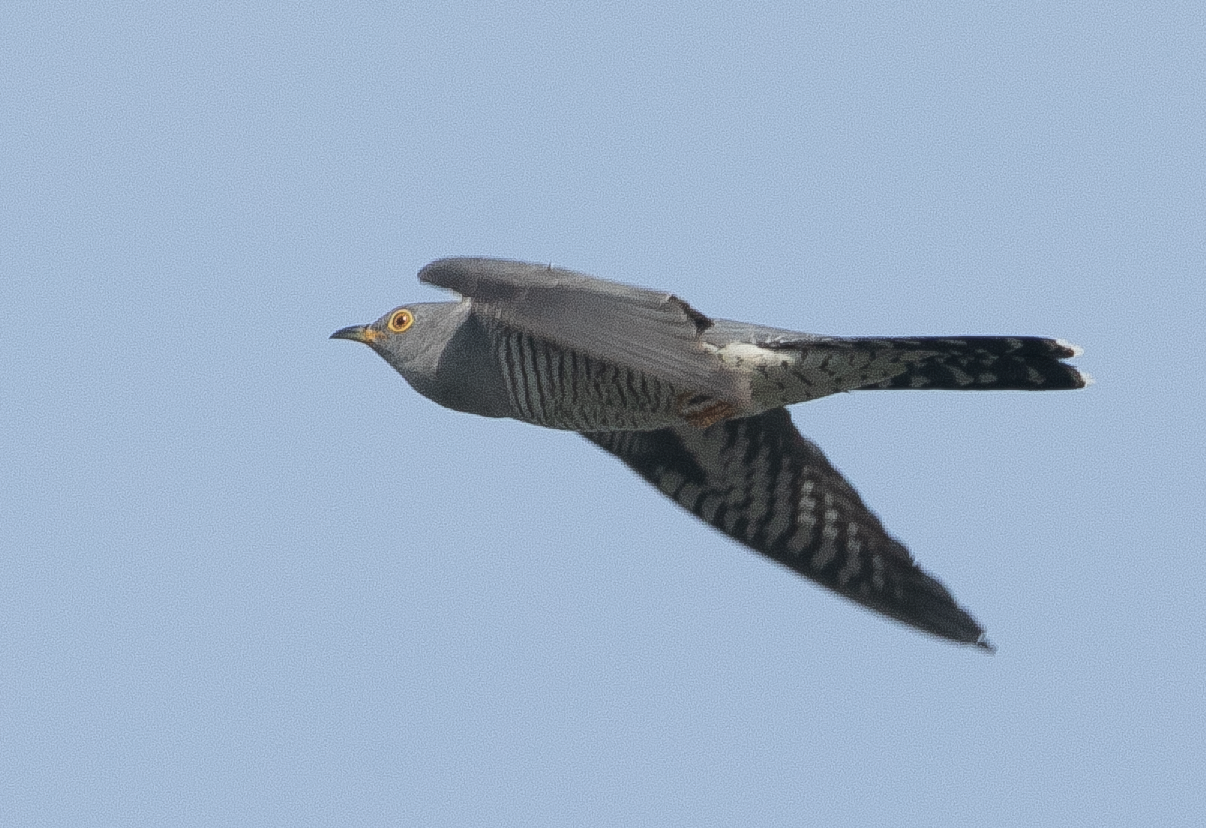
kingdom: Animalia
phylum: Chordata
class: Aves
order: Cuculiformes
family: Cuculidae
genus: Cuculus
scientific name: Cuculus canorus
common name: Common cuckoo
